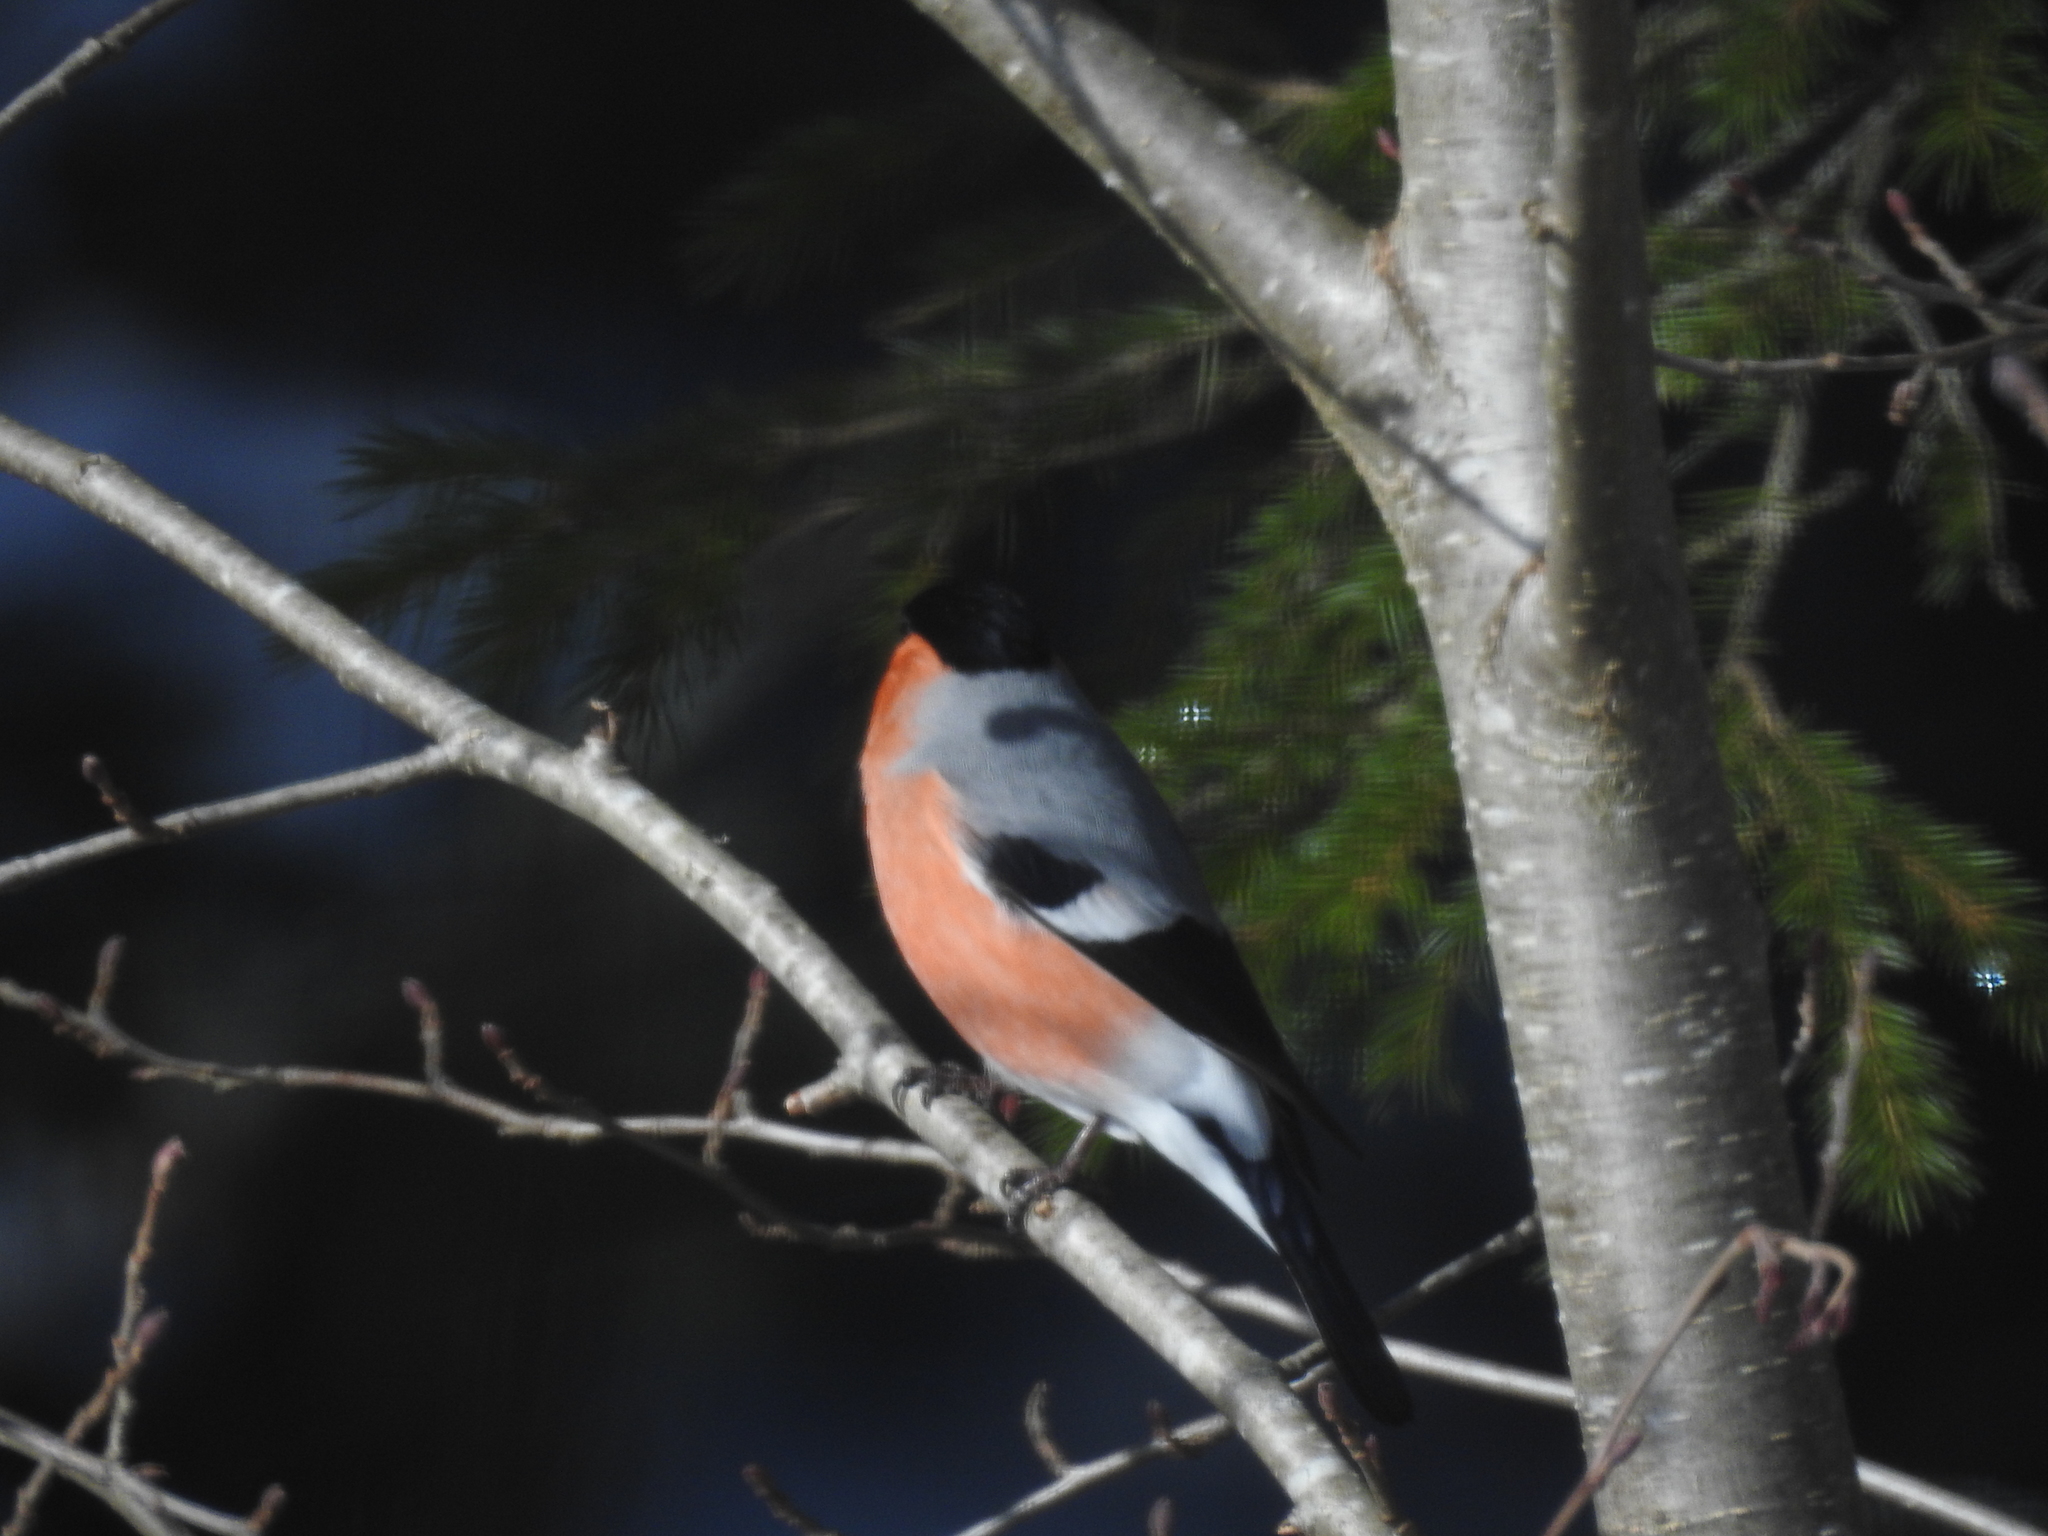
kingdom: Animalia
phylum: Chordata
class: Aves
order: Passeriformes
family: Fringillidae
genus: Pyrrhula
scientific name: Pyrrhula pyrrhula
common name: Eurasian bullfinch
